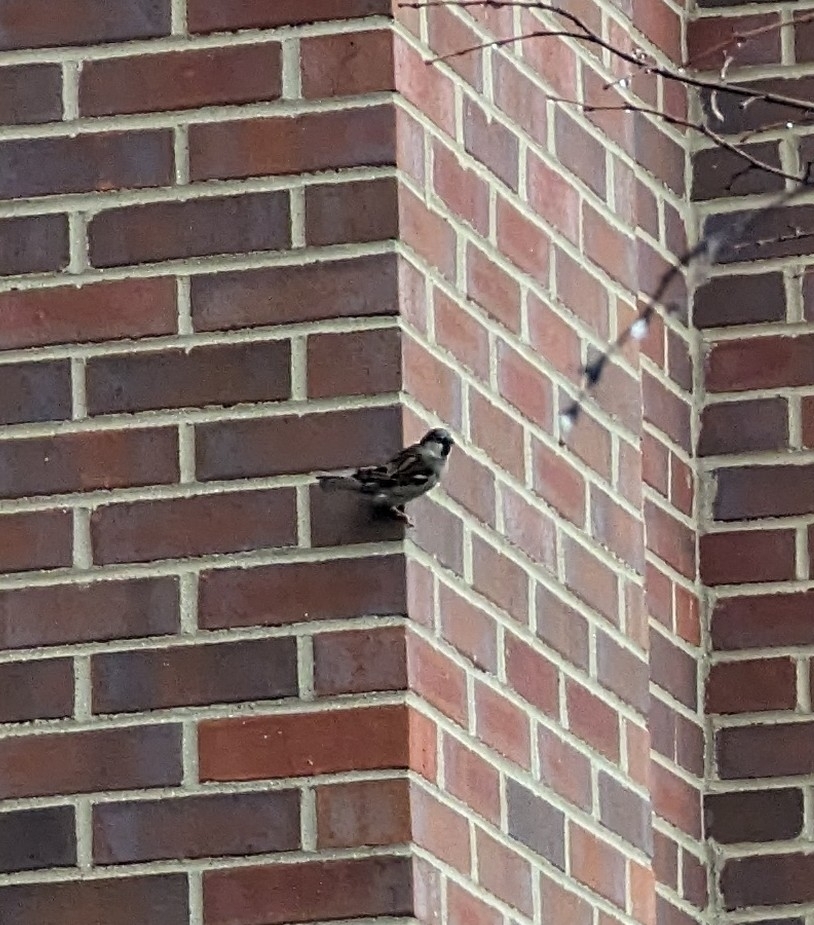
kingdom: Animalia
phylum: Chordata
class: Aves
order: Passeriformes
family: Passeridae
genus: Passer
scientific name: Passer domesticus
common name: House sparrow
